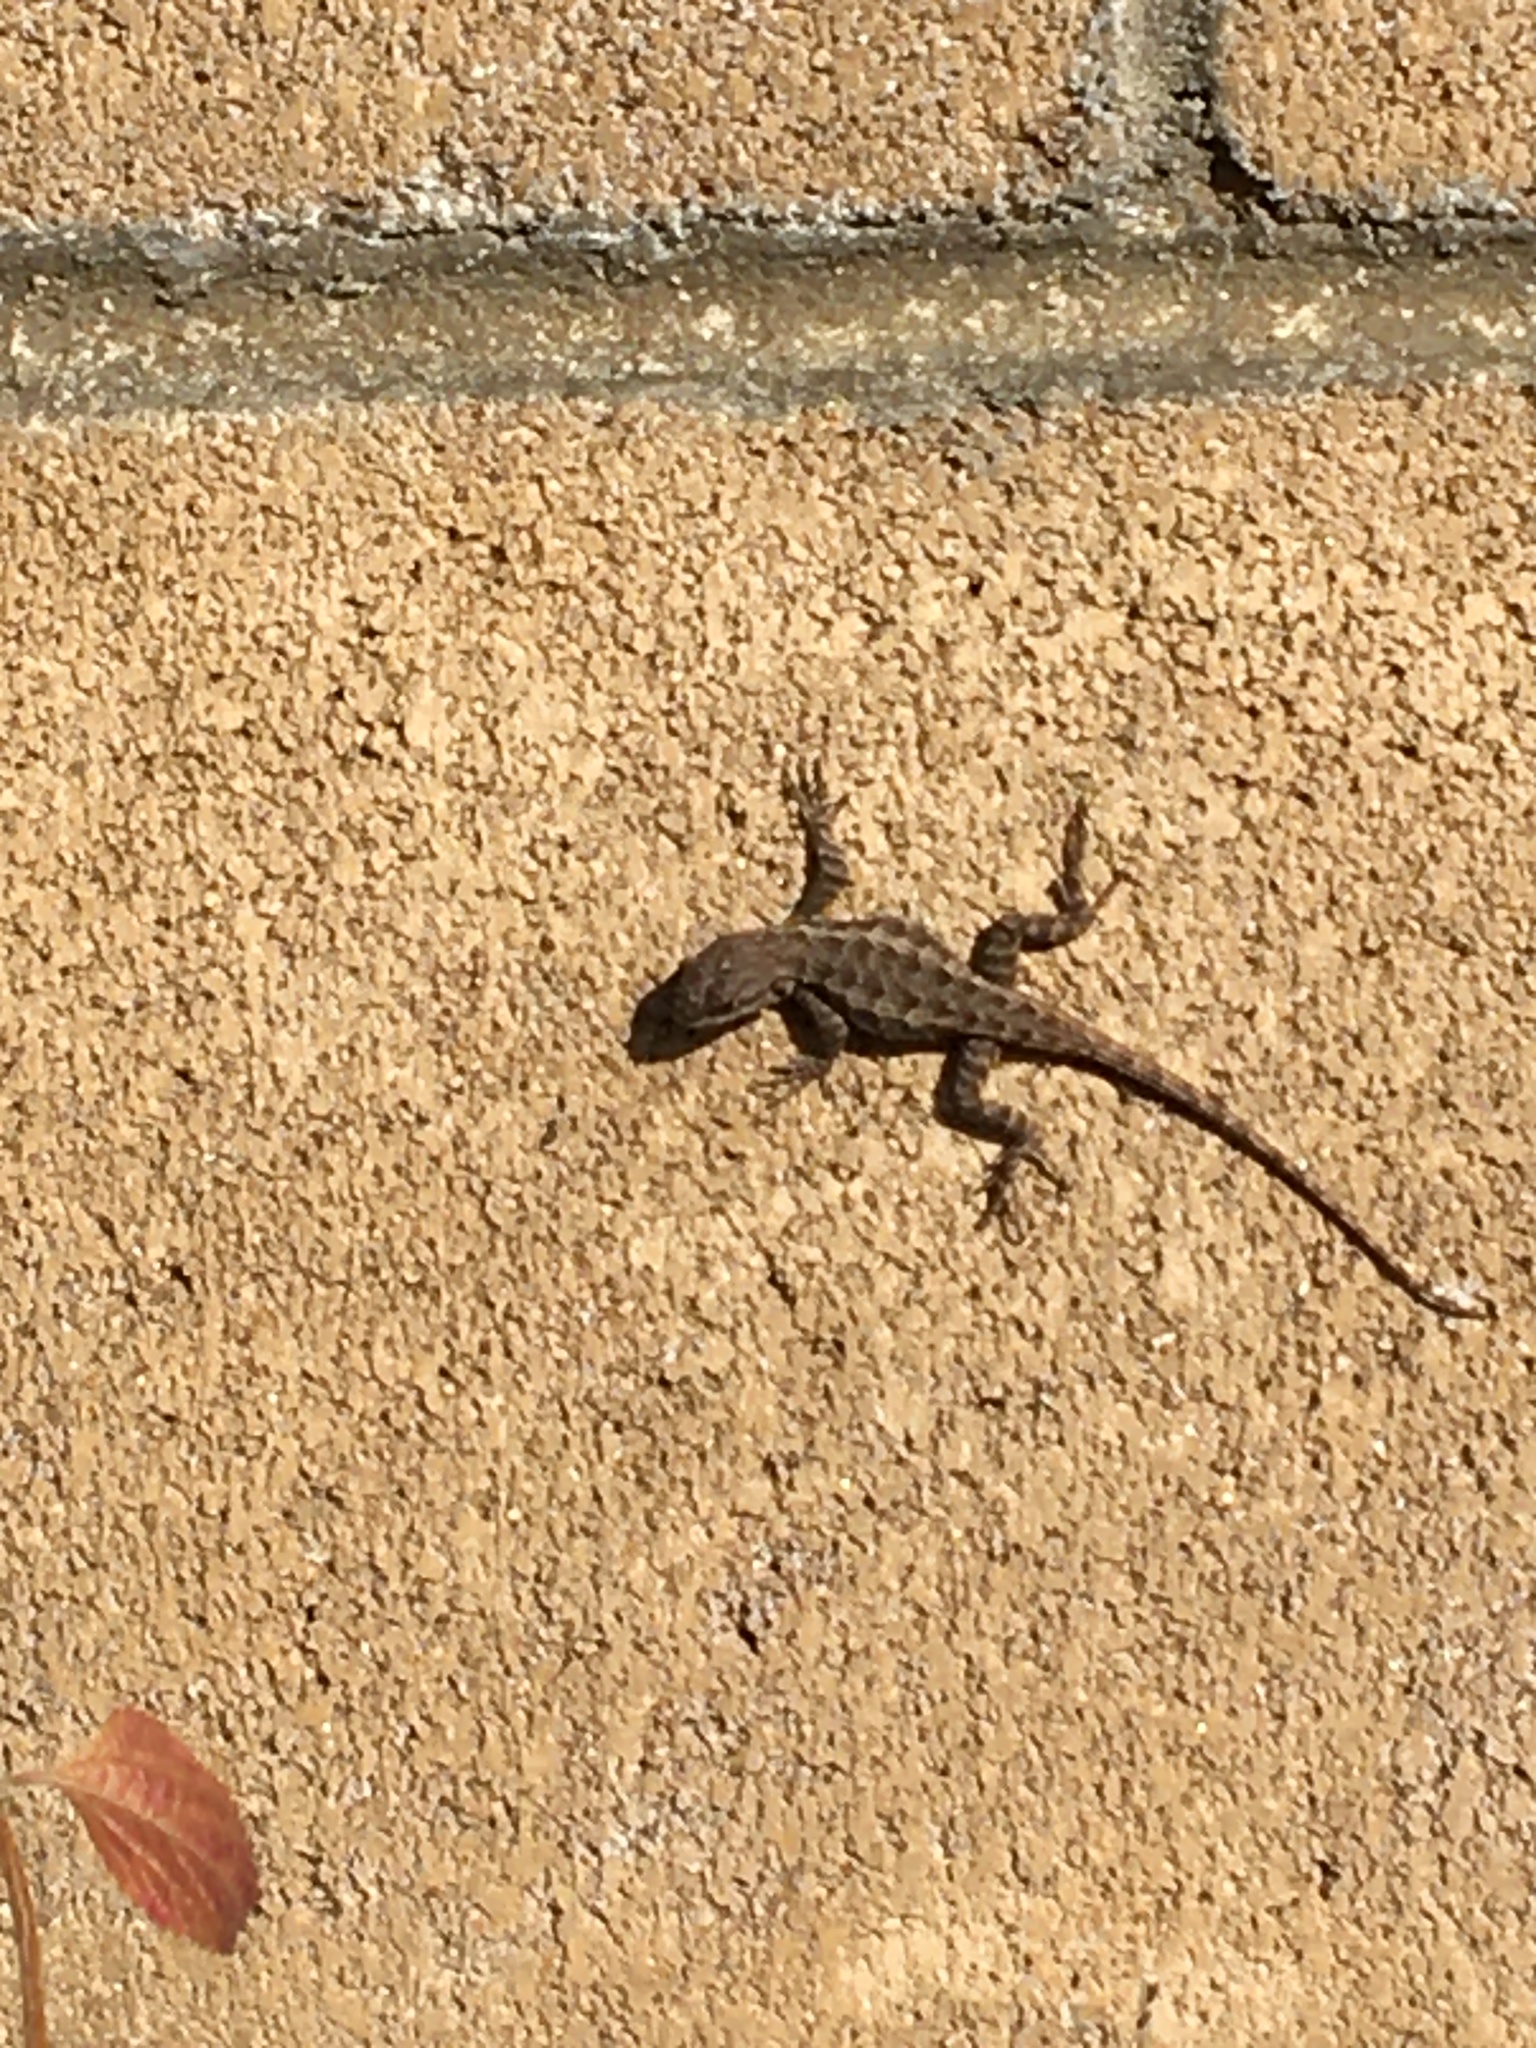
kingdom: Animalia
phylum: Chordata
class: Squamata
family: Phrynosomatidae
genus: Sceloporus
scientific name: Sceloporus occidentalis
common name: Western fence lizard
